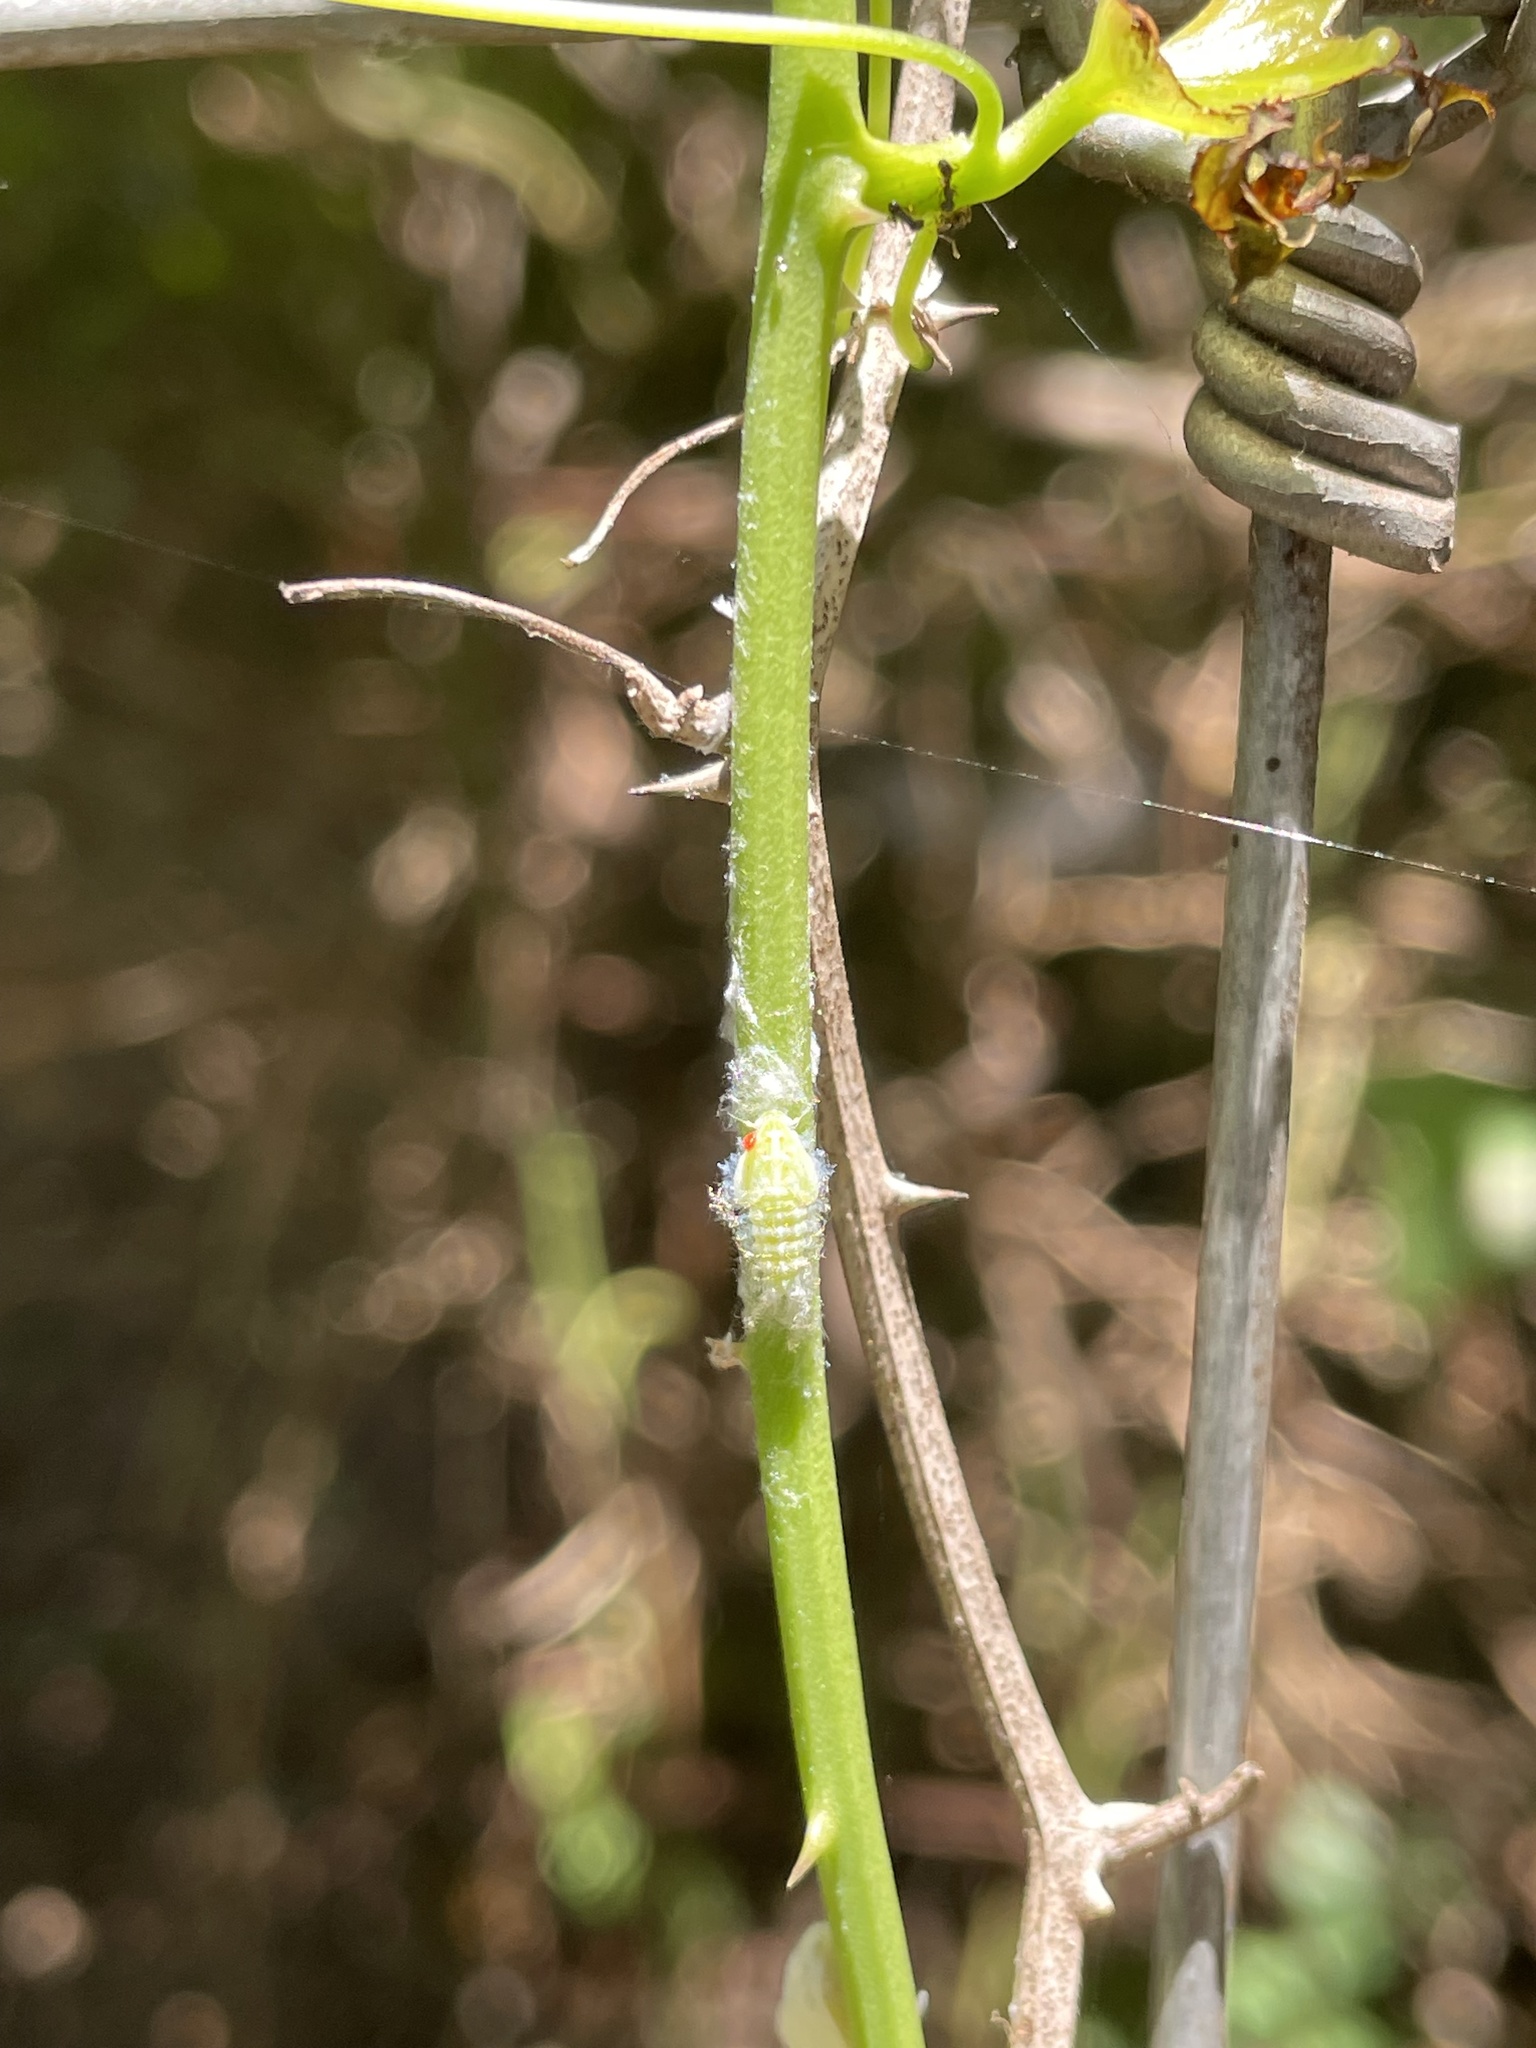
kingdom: Animalia
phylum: Arthropoda
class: Insecta
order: Hemiptera
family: Flatidae
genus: Ormenoides
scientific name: Ormenoides venusta
